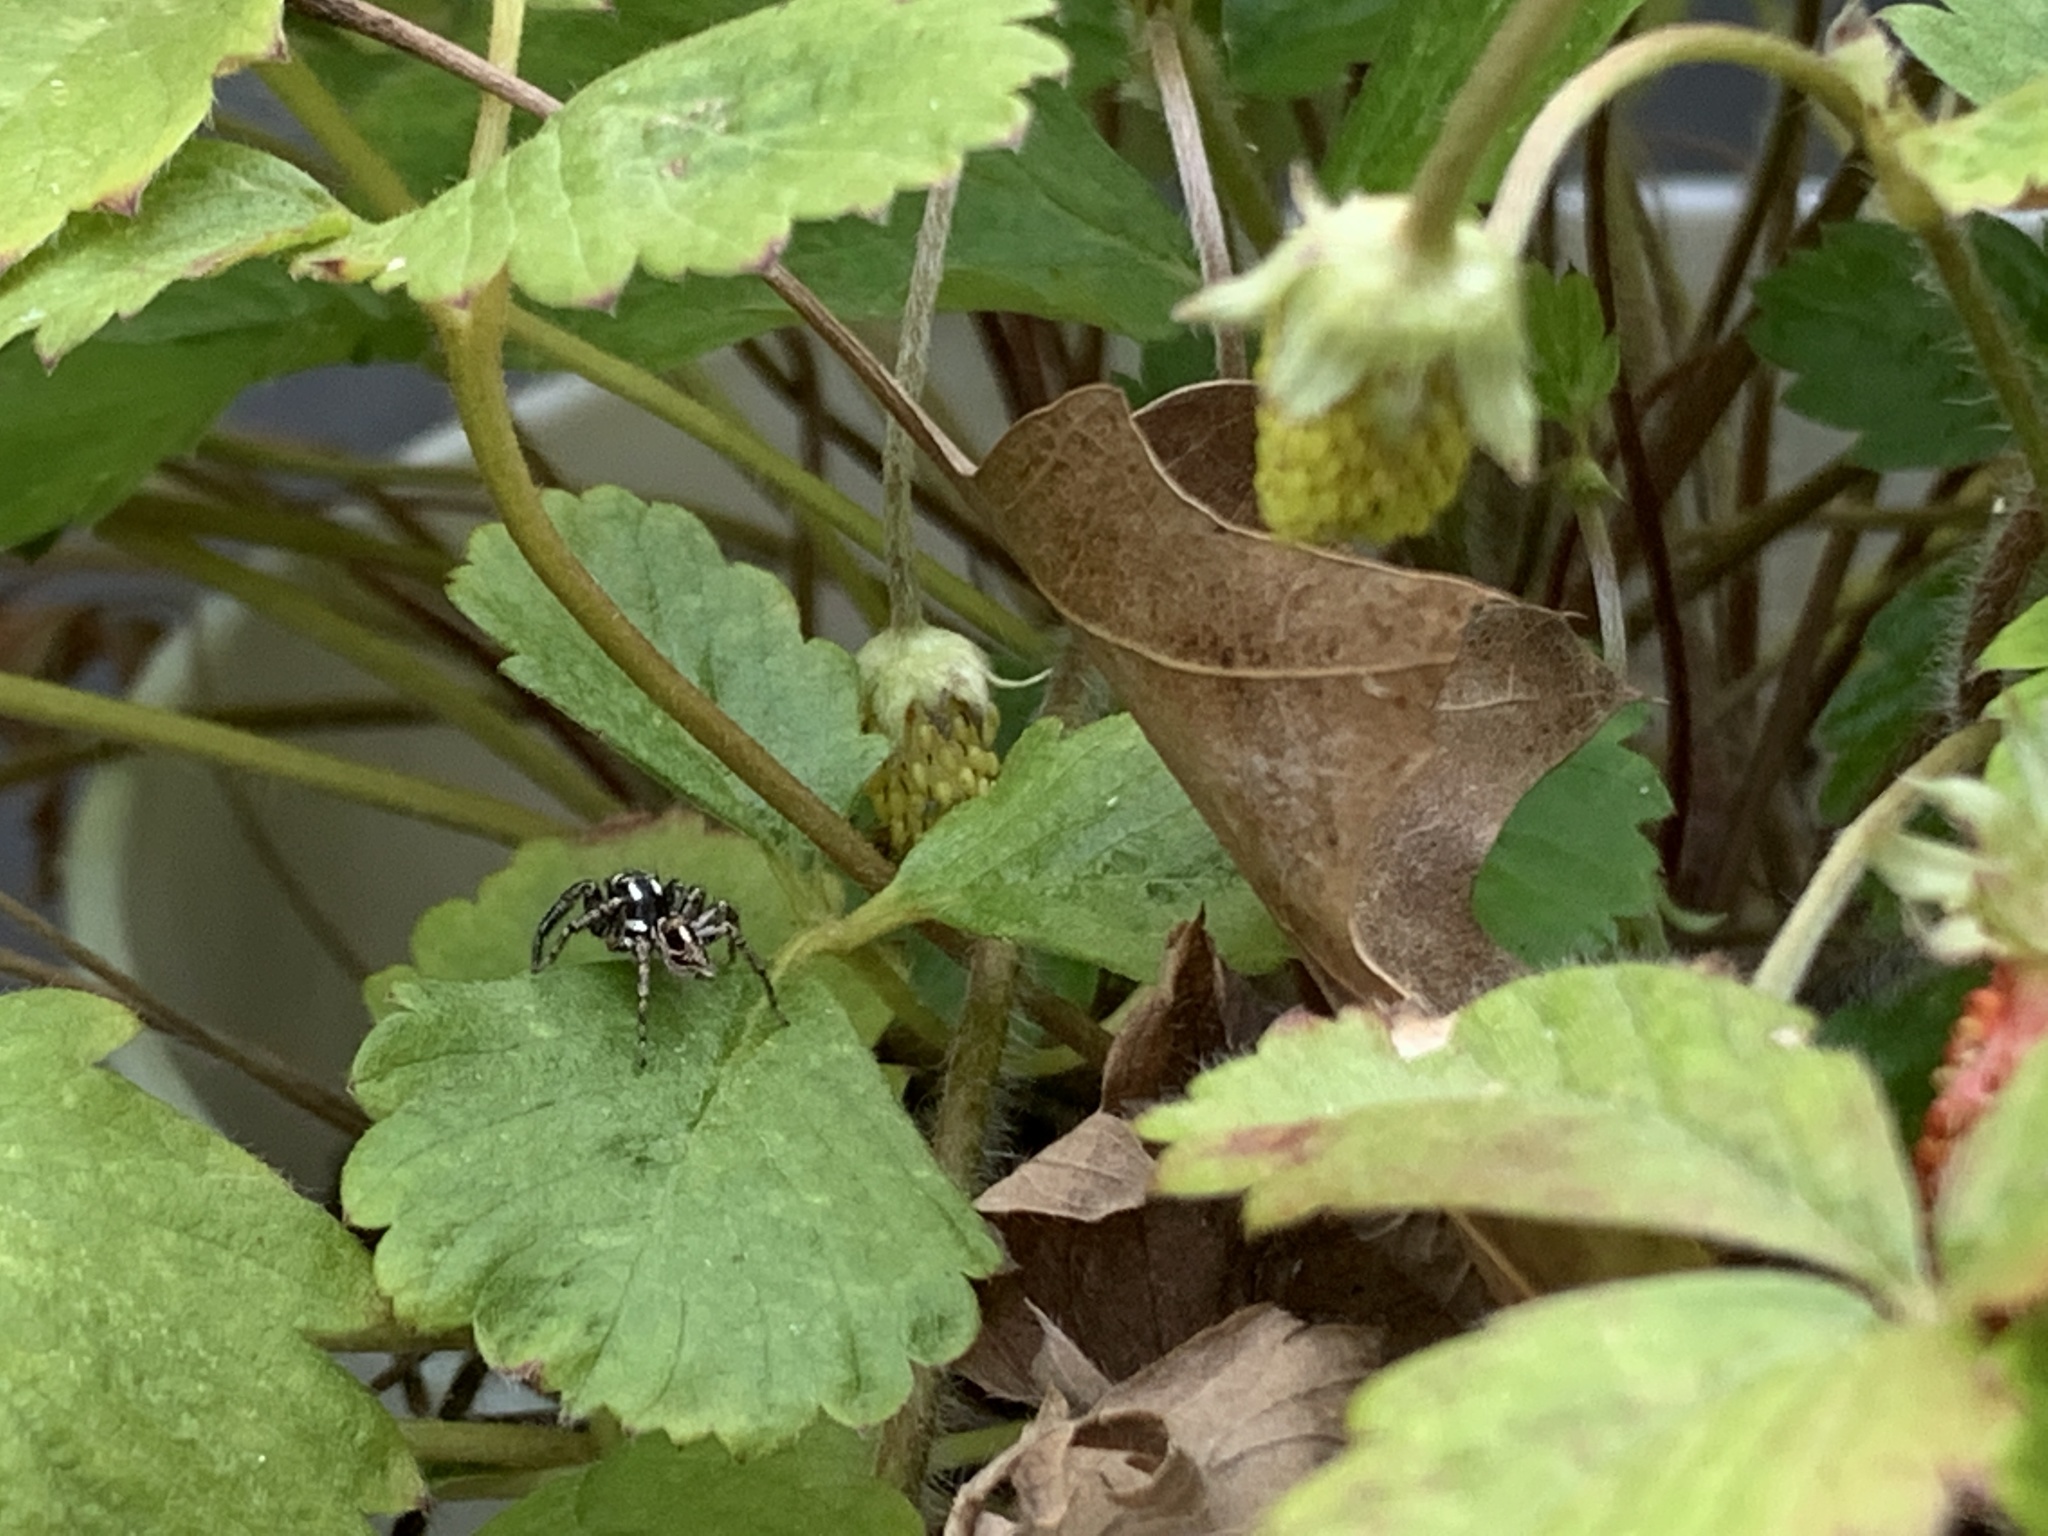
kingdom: Animalia
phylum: Arthropoda
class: Arachnida
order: Araneae
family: Salticidae
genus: Anasaitis
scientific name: Anasaitis canosa
